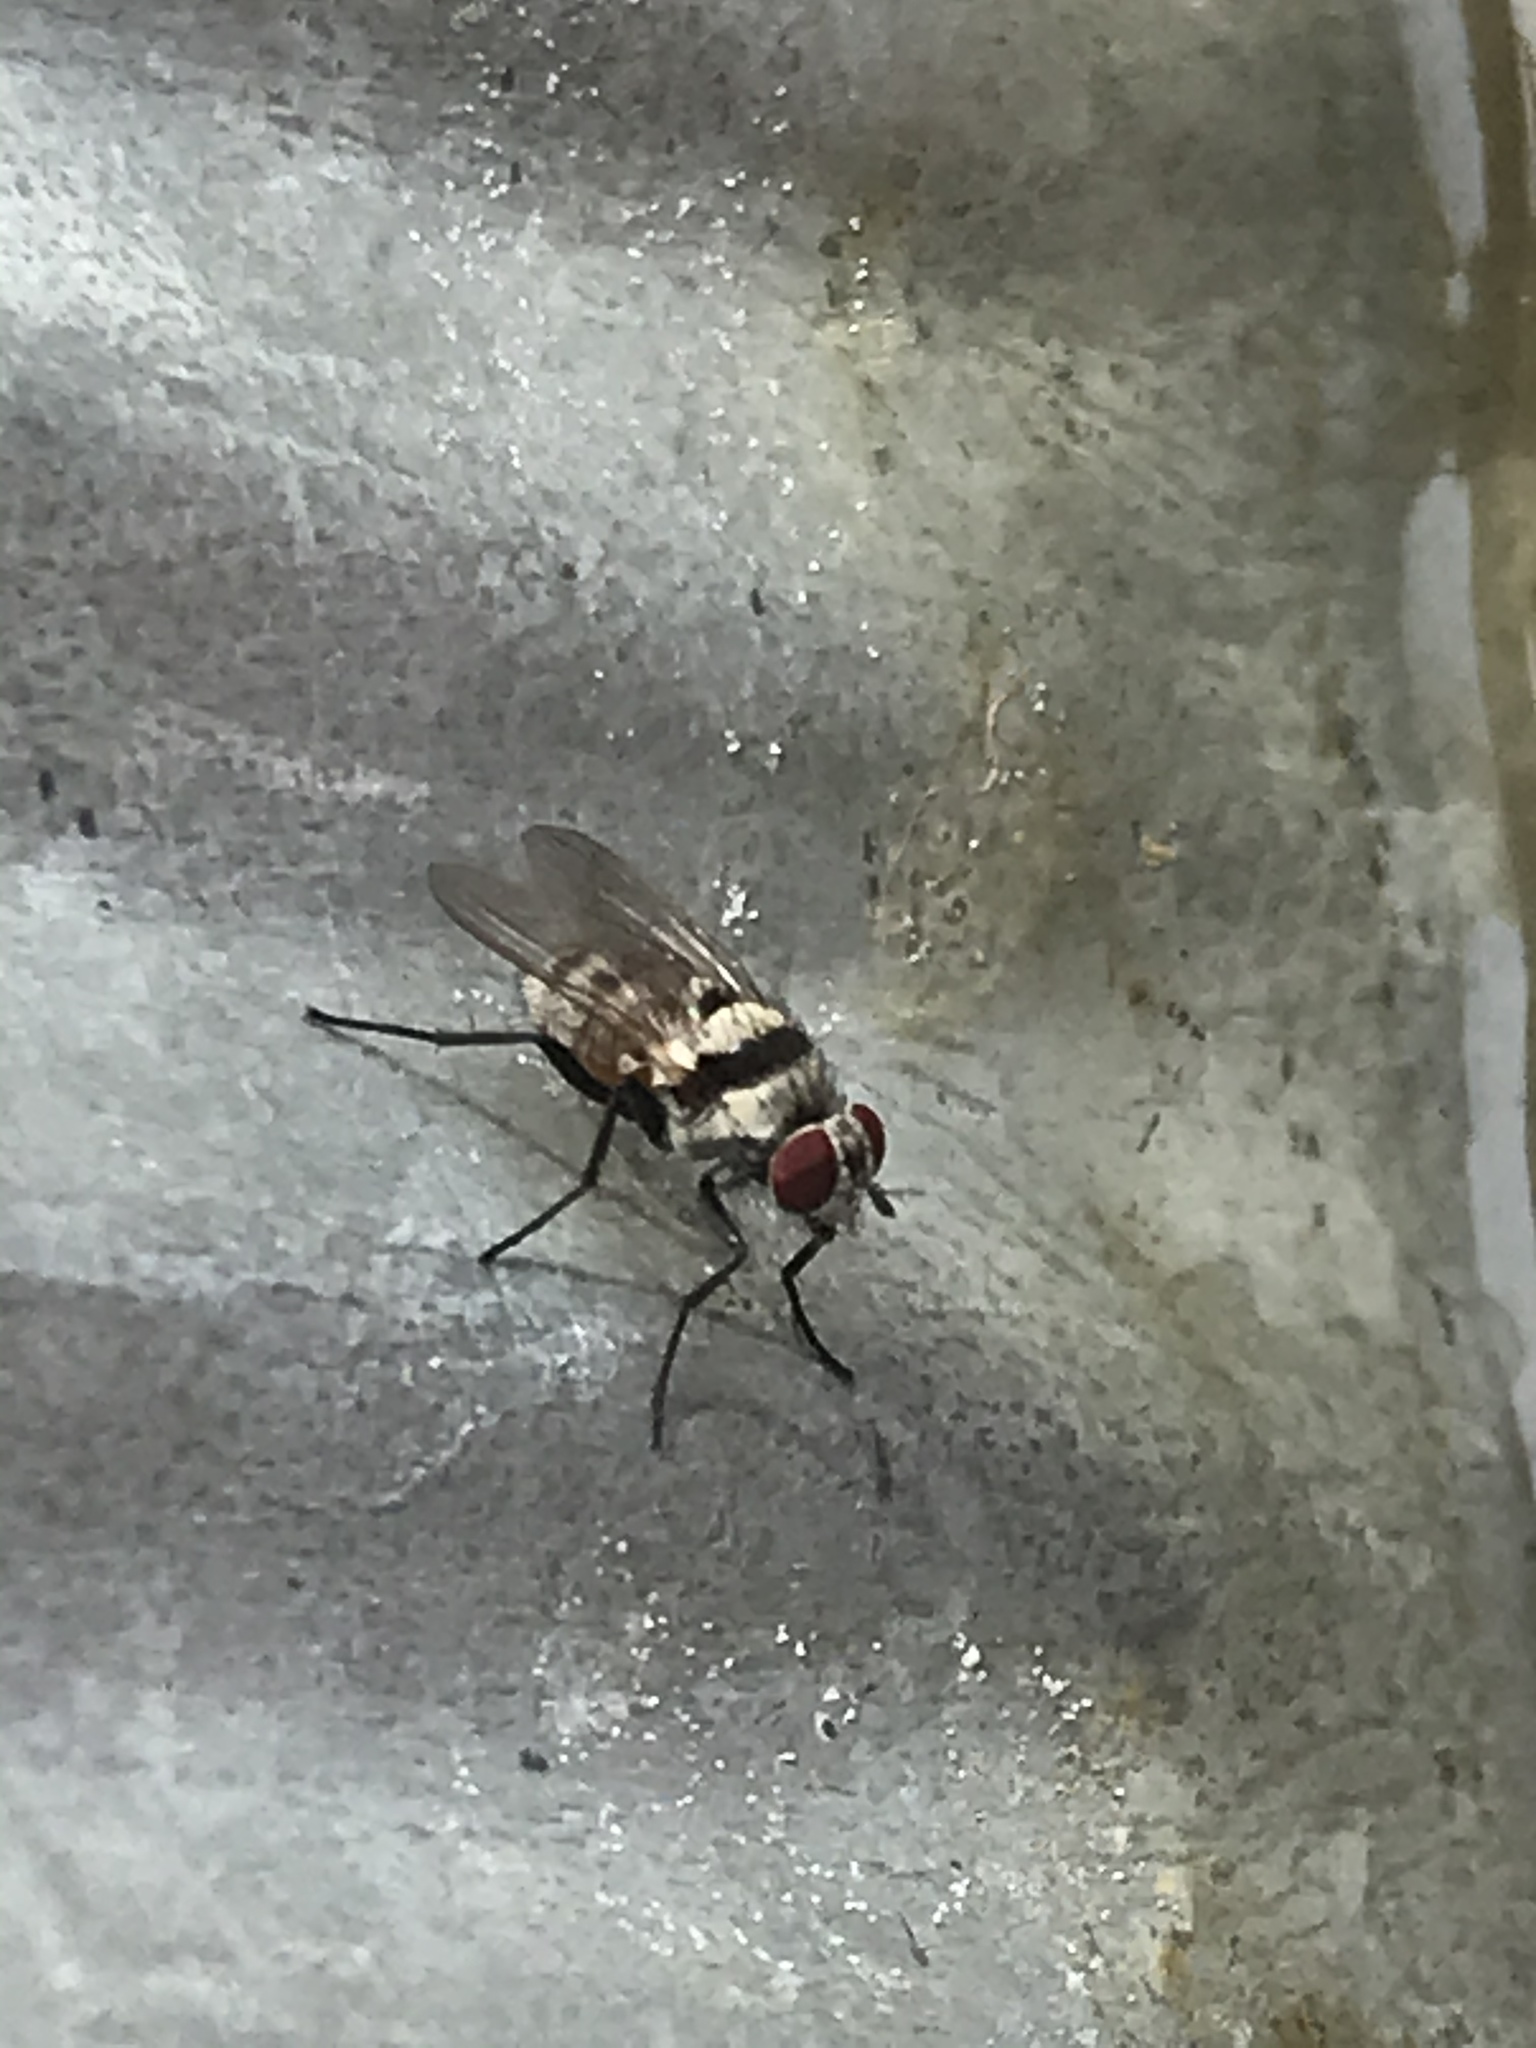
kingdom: Animalia
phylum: Arthropoda
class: Insecta
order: Diptera
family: Anthomyiidae
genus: Anthomyia
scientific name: Anthomyia illocata
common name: Fly
